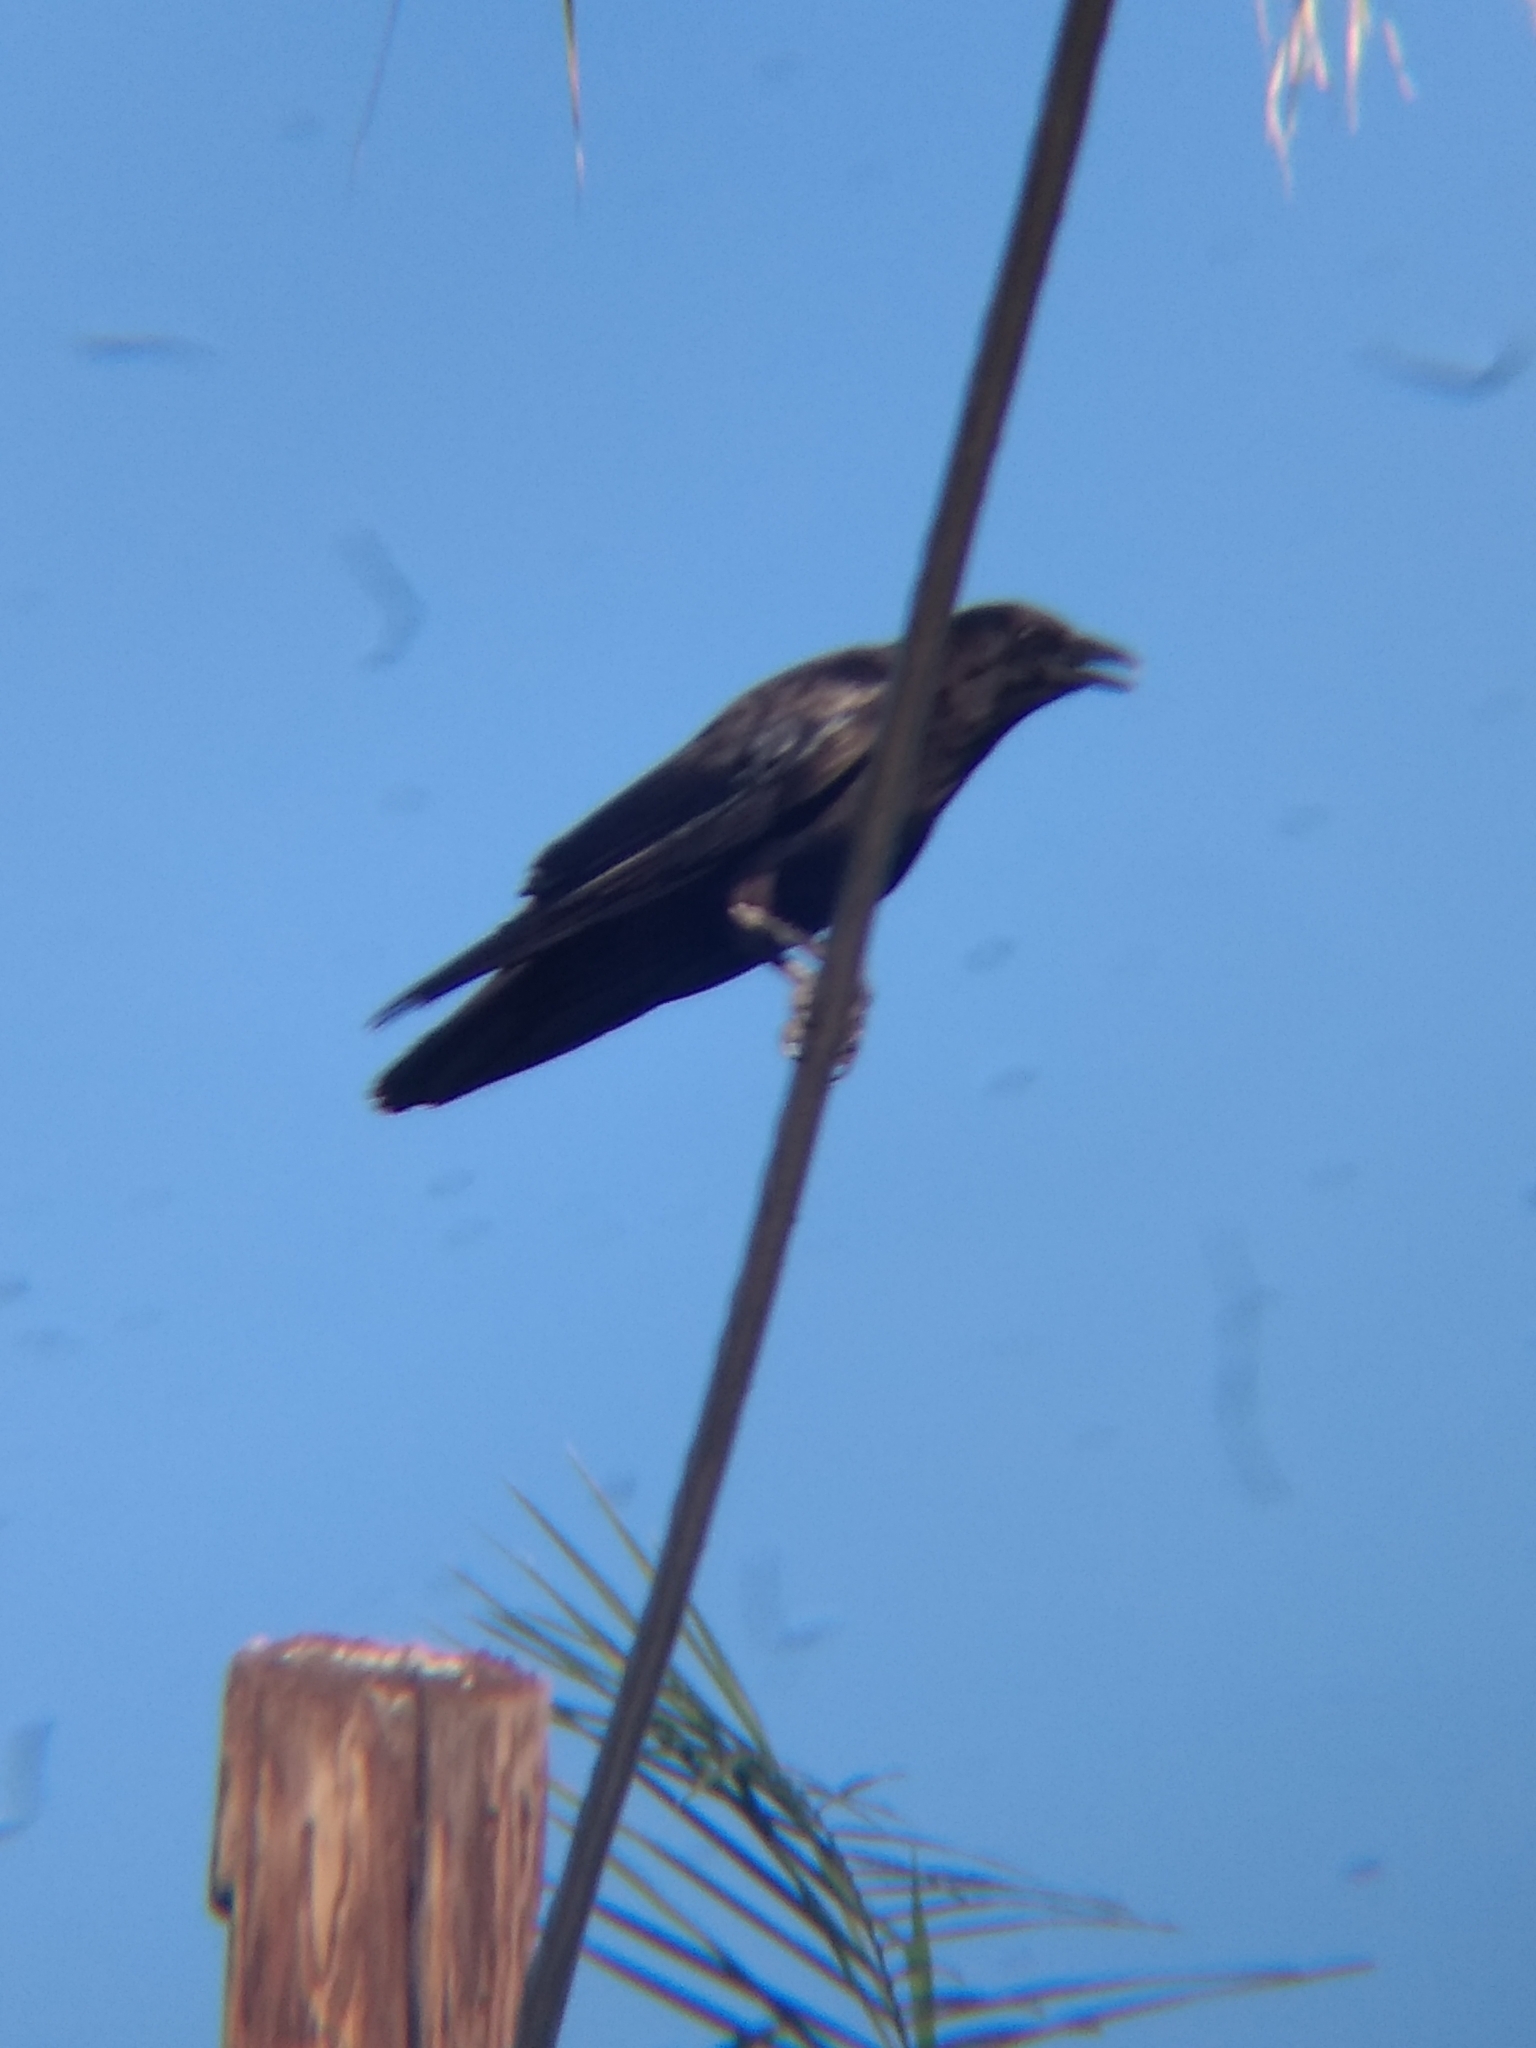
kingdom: Animalia
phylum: Chordata
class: Aves
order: Passeriformes
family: Corvidae
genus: Corvus
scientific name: Corvus brachyrhynchos
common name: American crow
